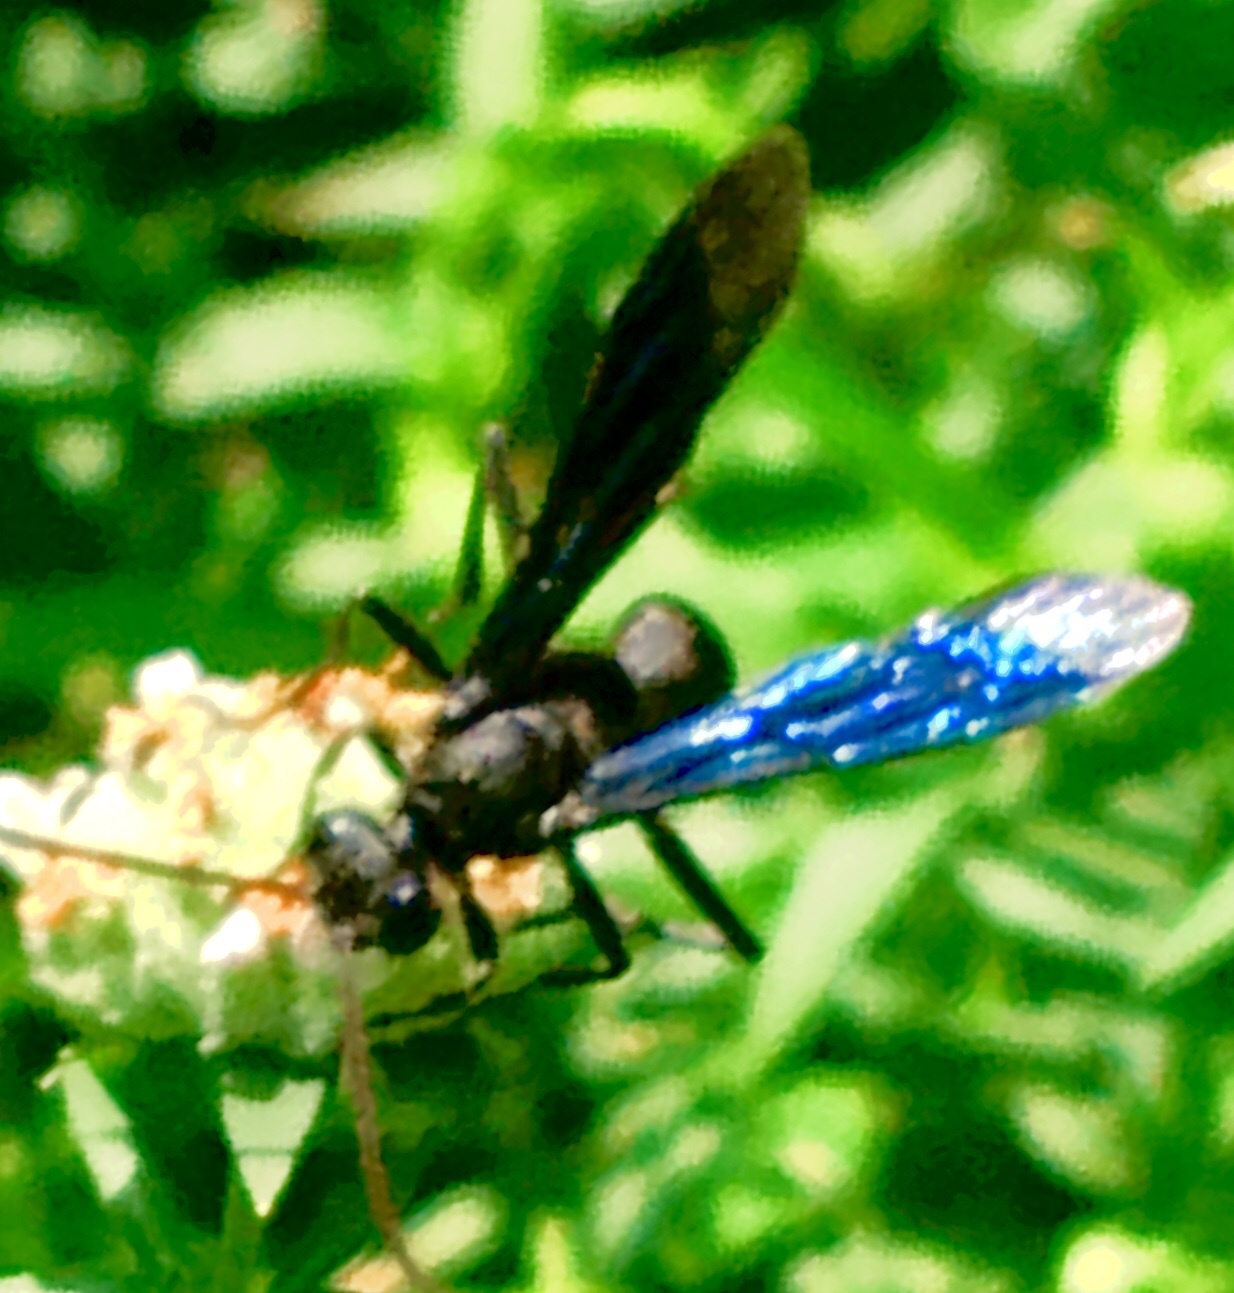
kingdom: Animalia
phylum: Arthropoda
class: Insecta
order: Hymenoptera
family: Sphecidae
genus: Sphex
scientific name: Sphex pensylvanicus
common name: Great black digger wasp
